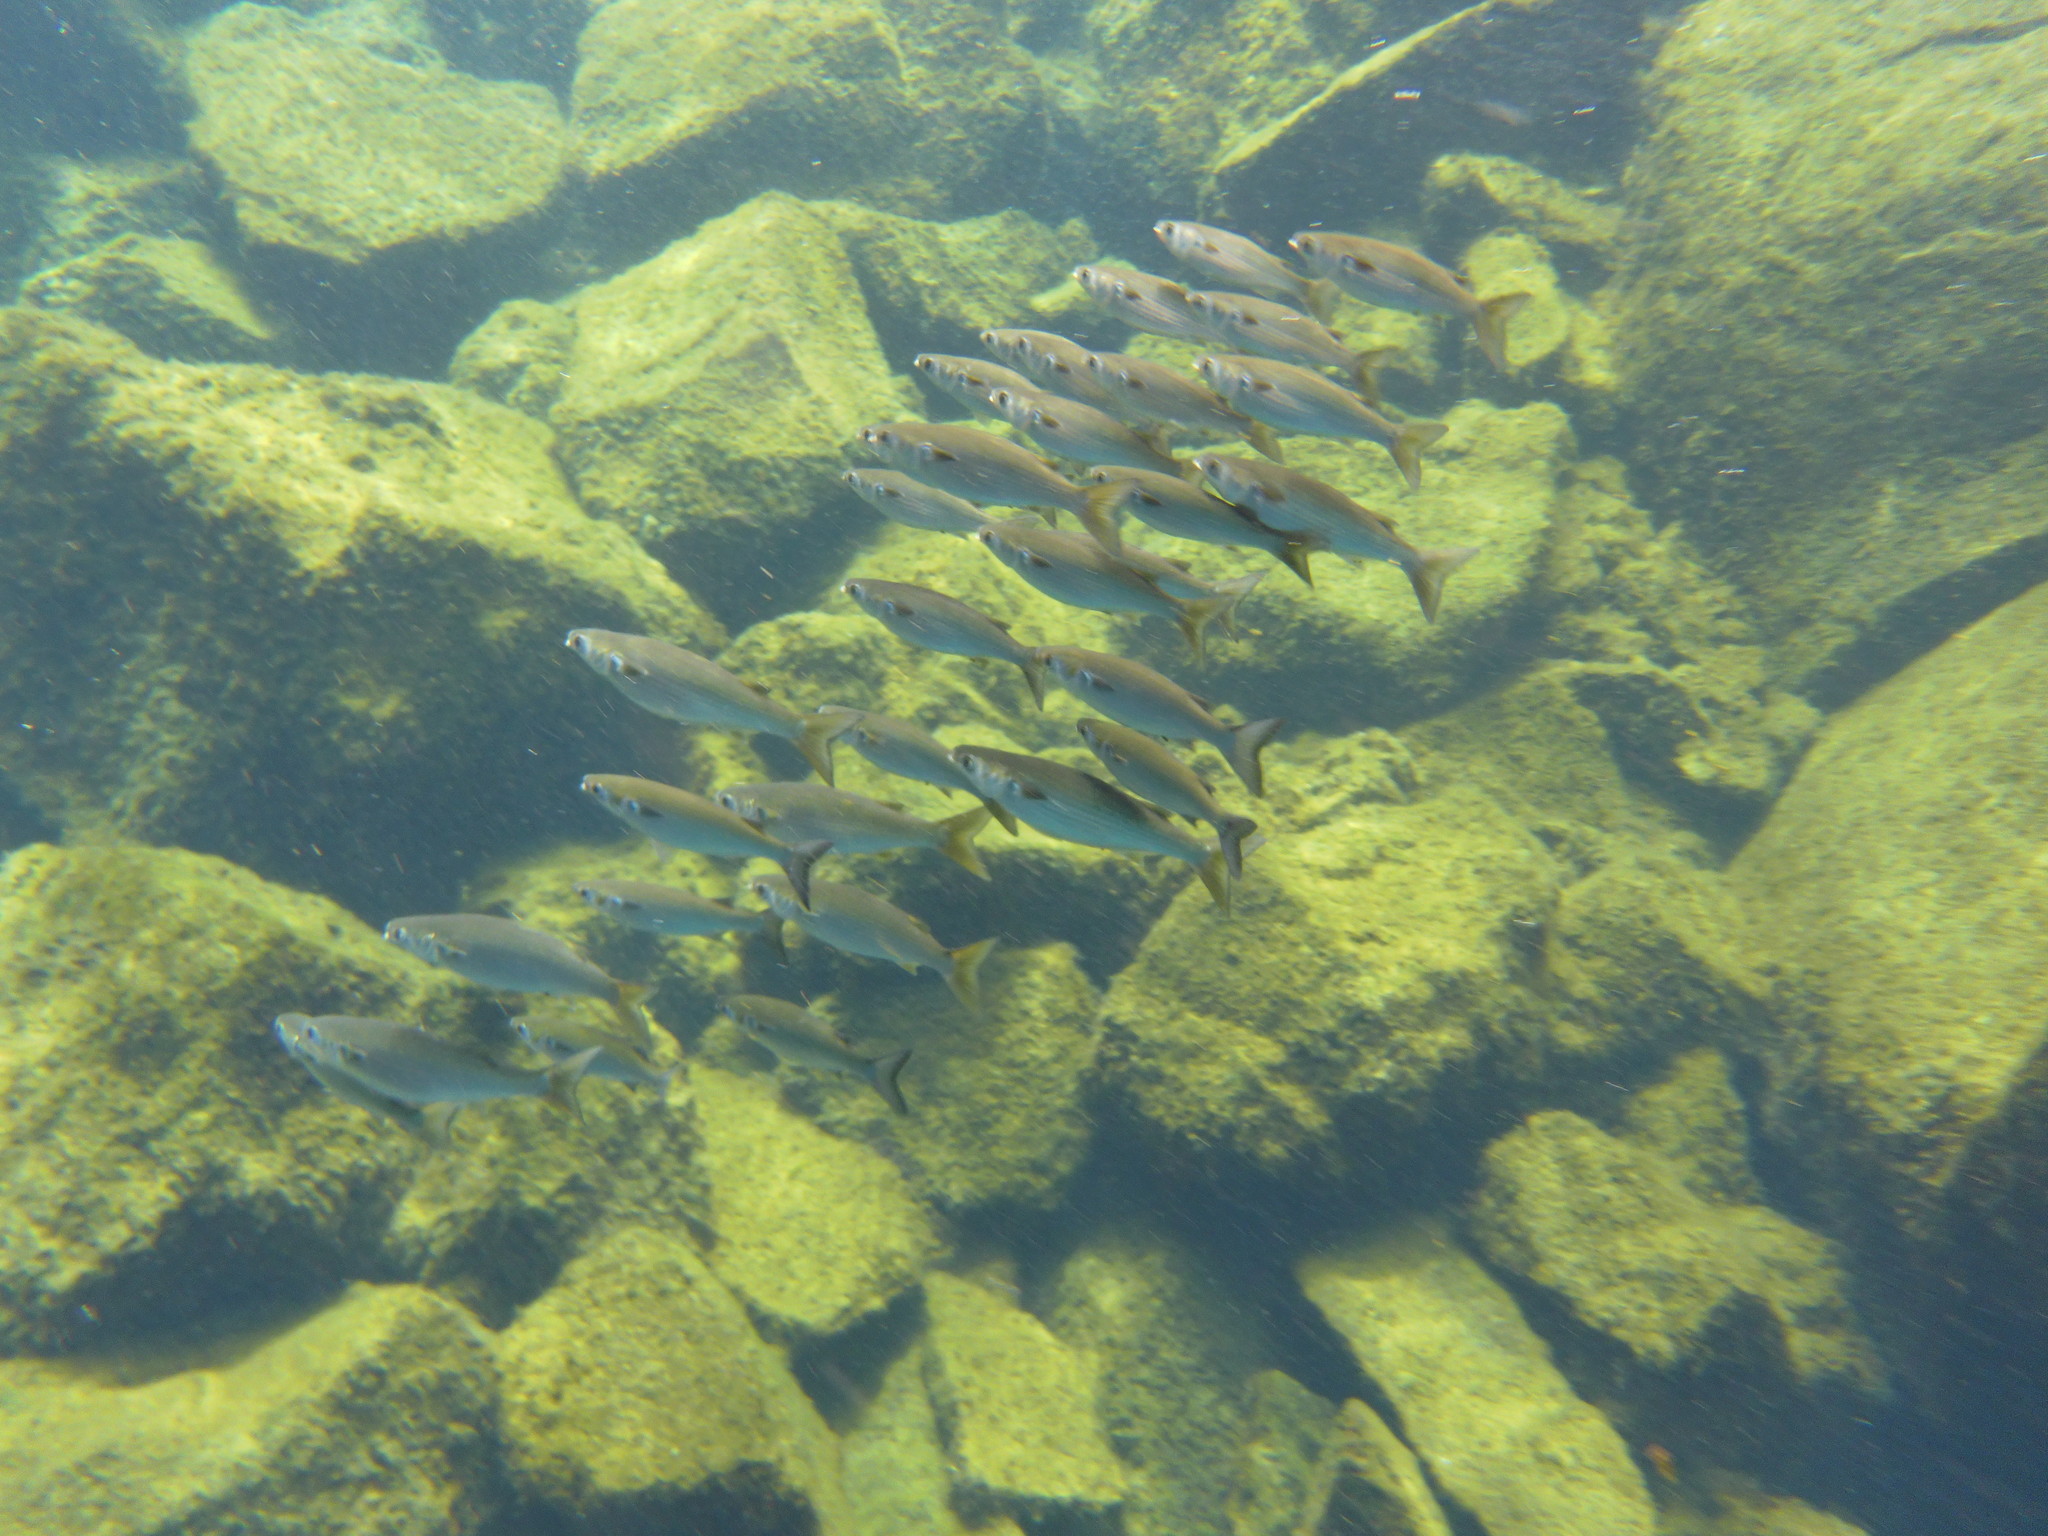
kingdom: Animalia
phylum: Chordata
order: Mugiliformes
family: Mugilidae
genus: Mugil
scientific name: Mugil cephalus
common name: Grey mullet
